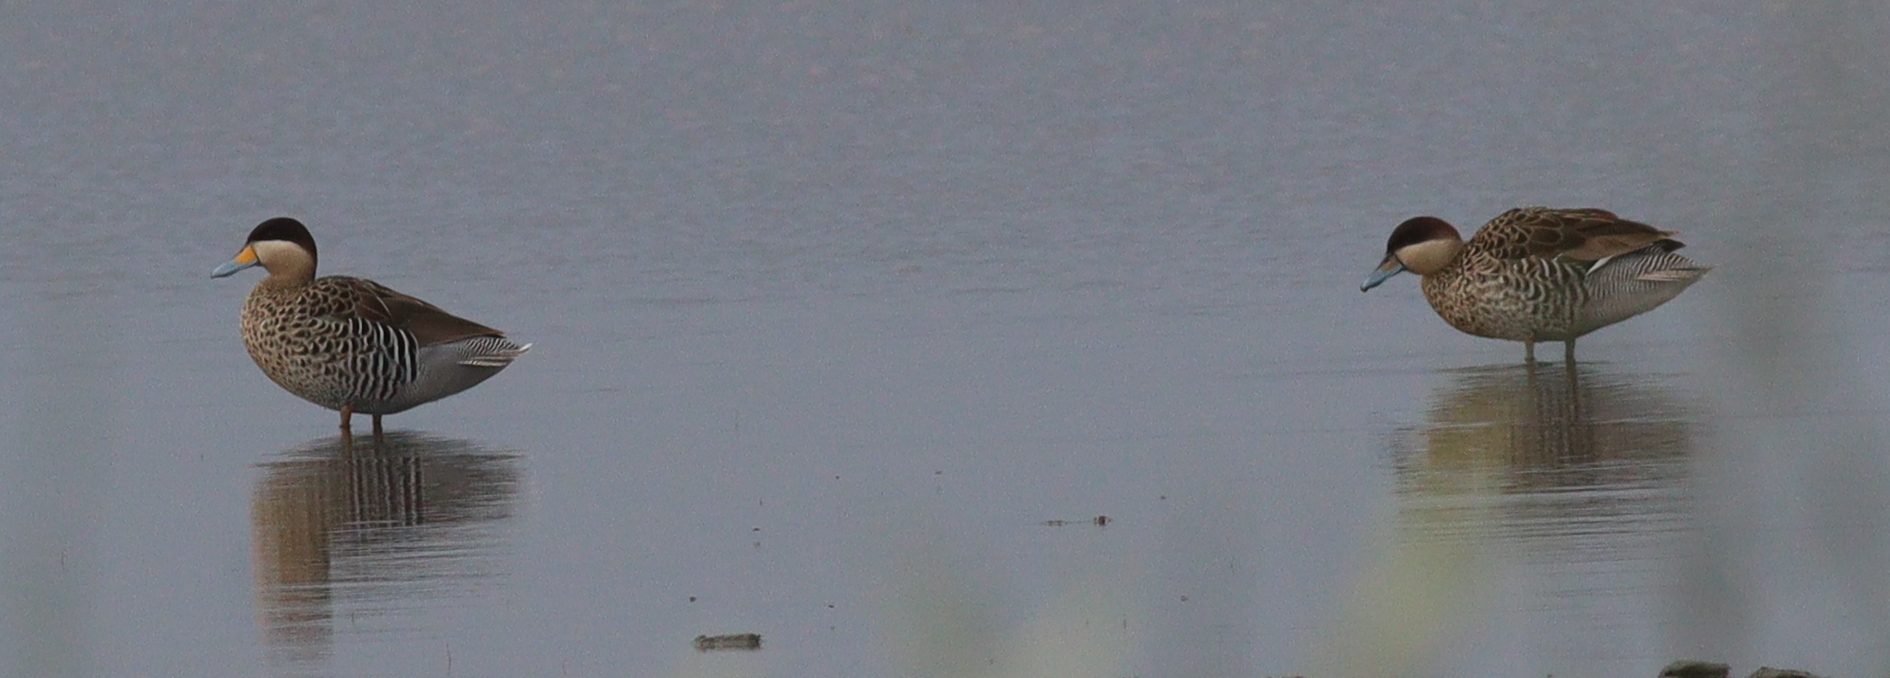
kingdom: Animalia
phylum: Chordata
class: Aves
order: Anseriformes
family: Anatidae
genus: Spatula
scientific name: Spatula versicolor
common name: Silver teal
